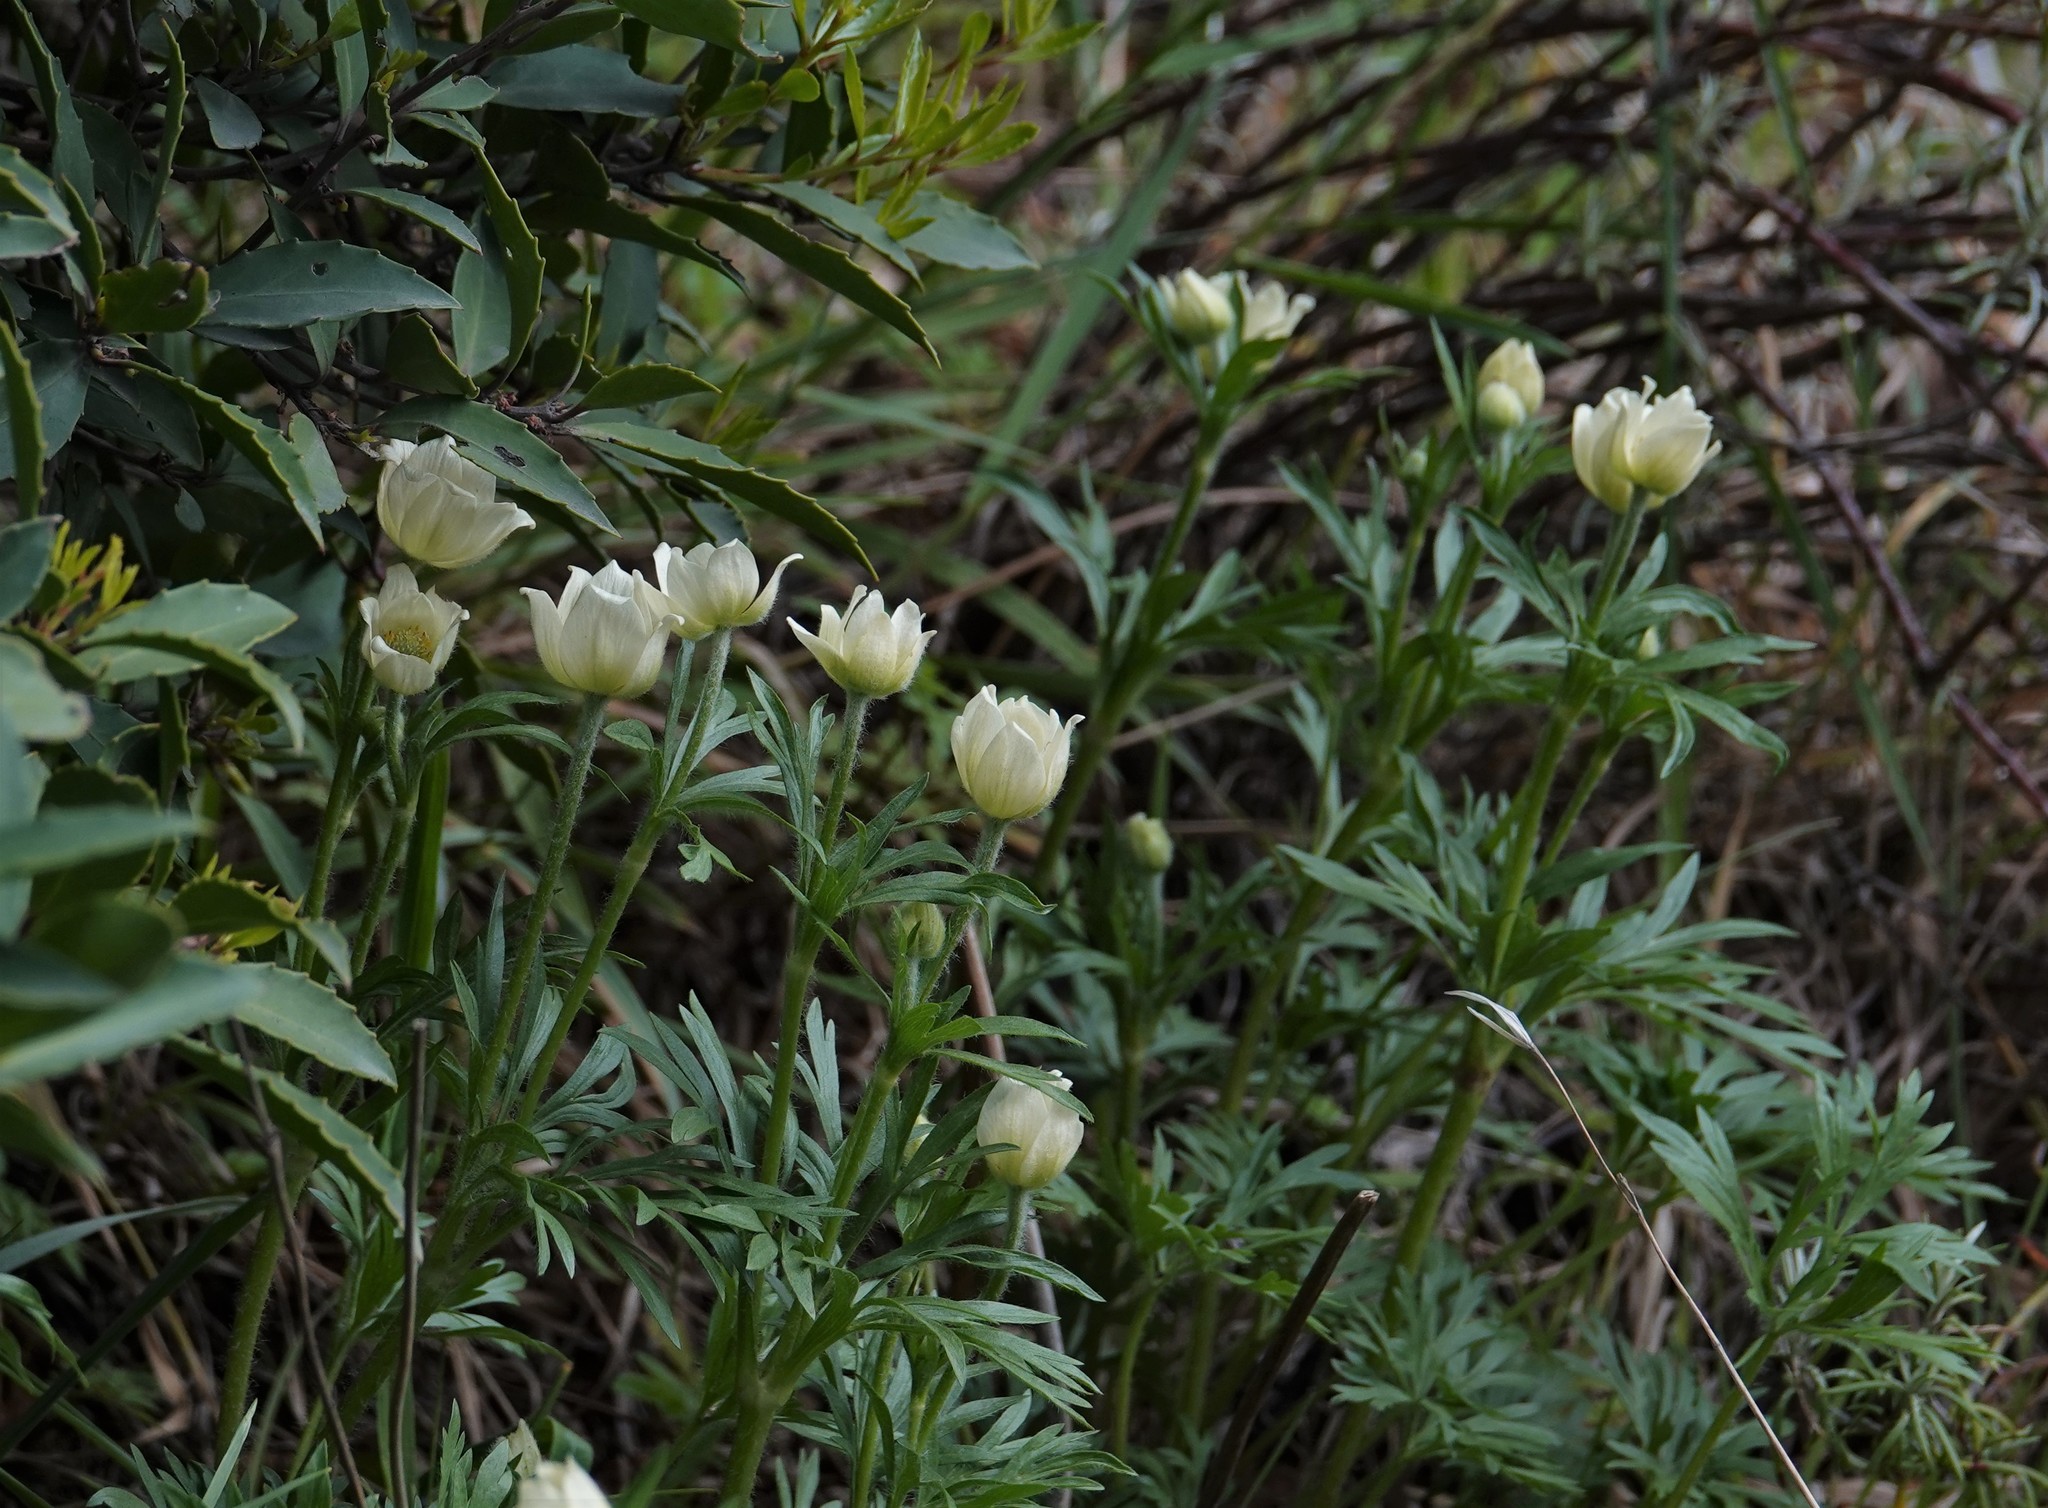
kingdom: Plantae
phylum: Tracheophyta
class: Magnoliopsida
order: Ranunculales
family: Ranunculaceae
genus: Anemone
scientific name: Anemone multifida
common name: Bird's-foot anemone
